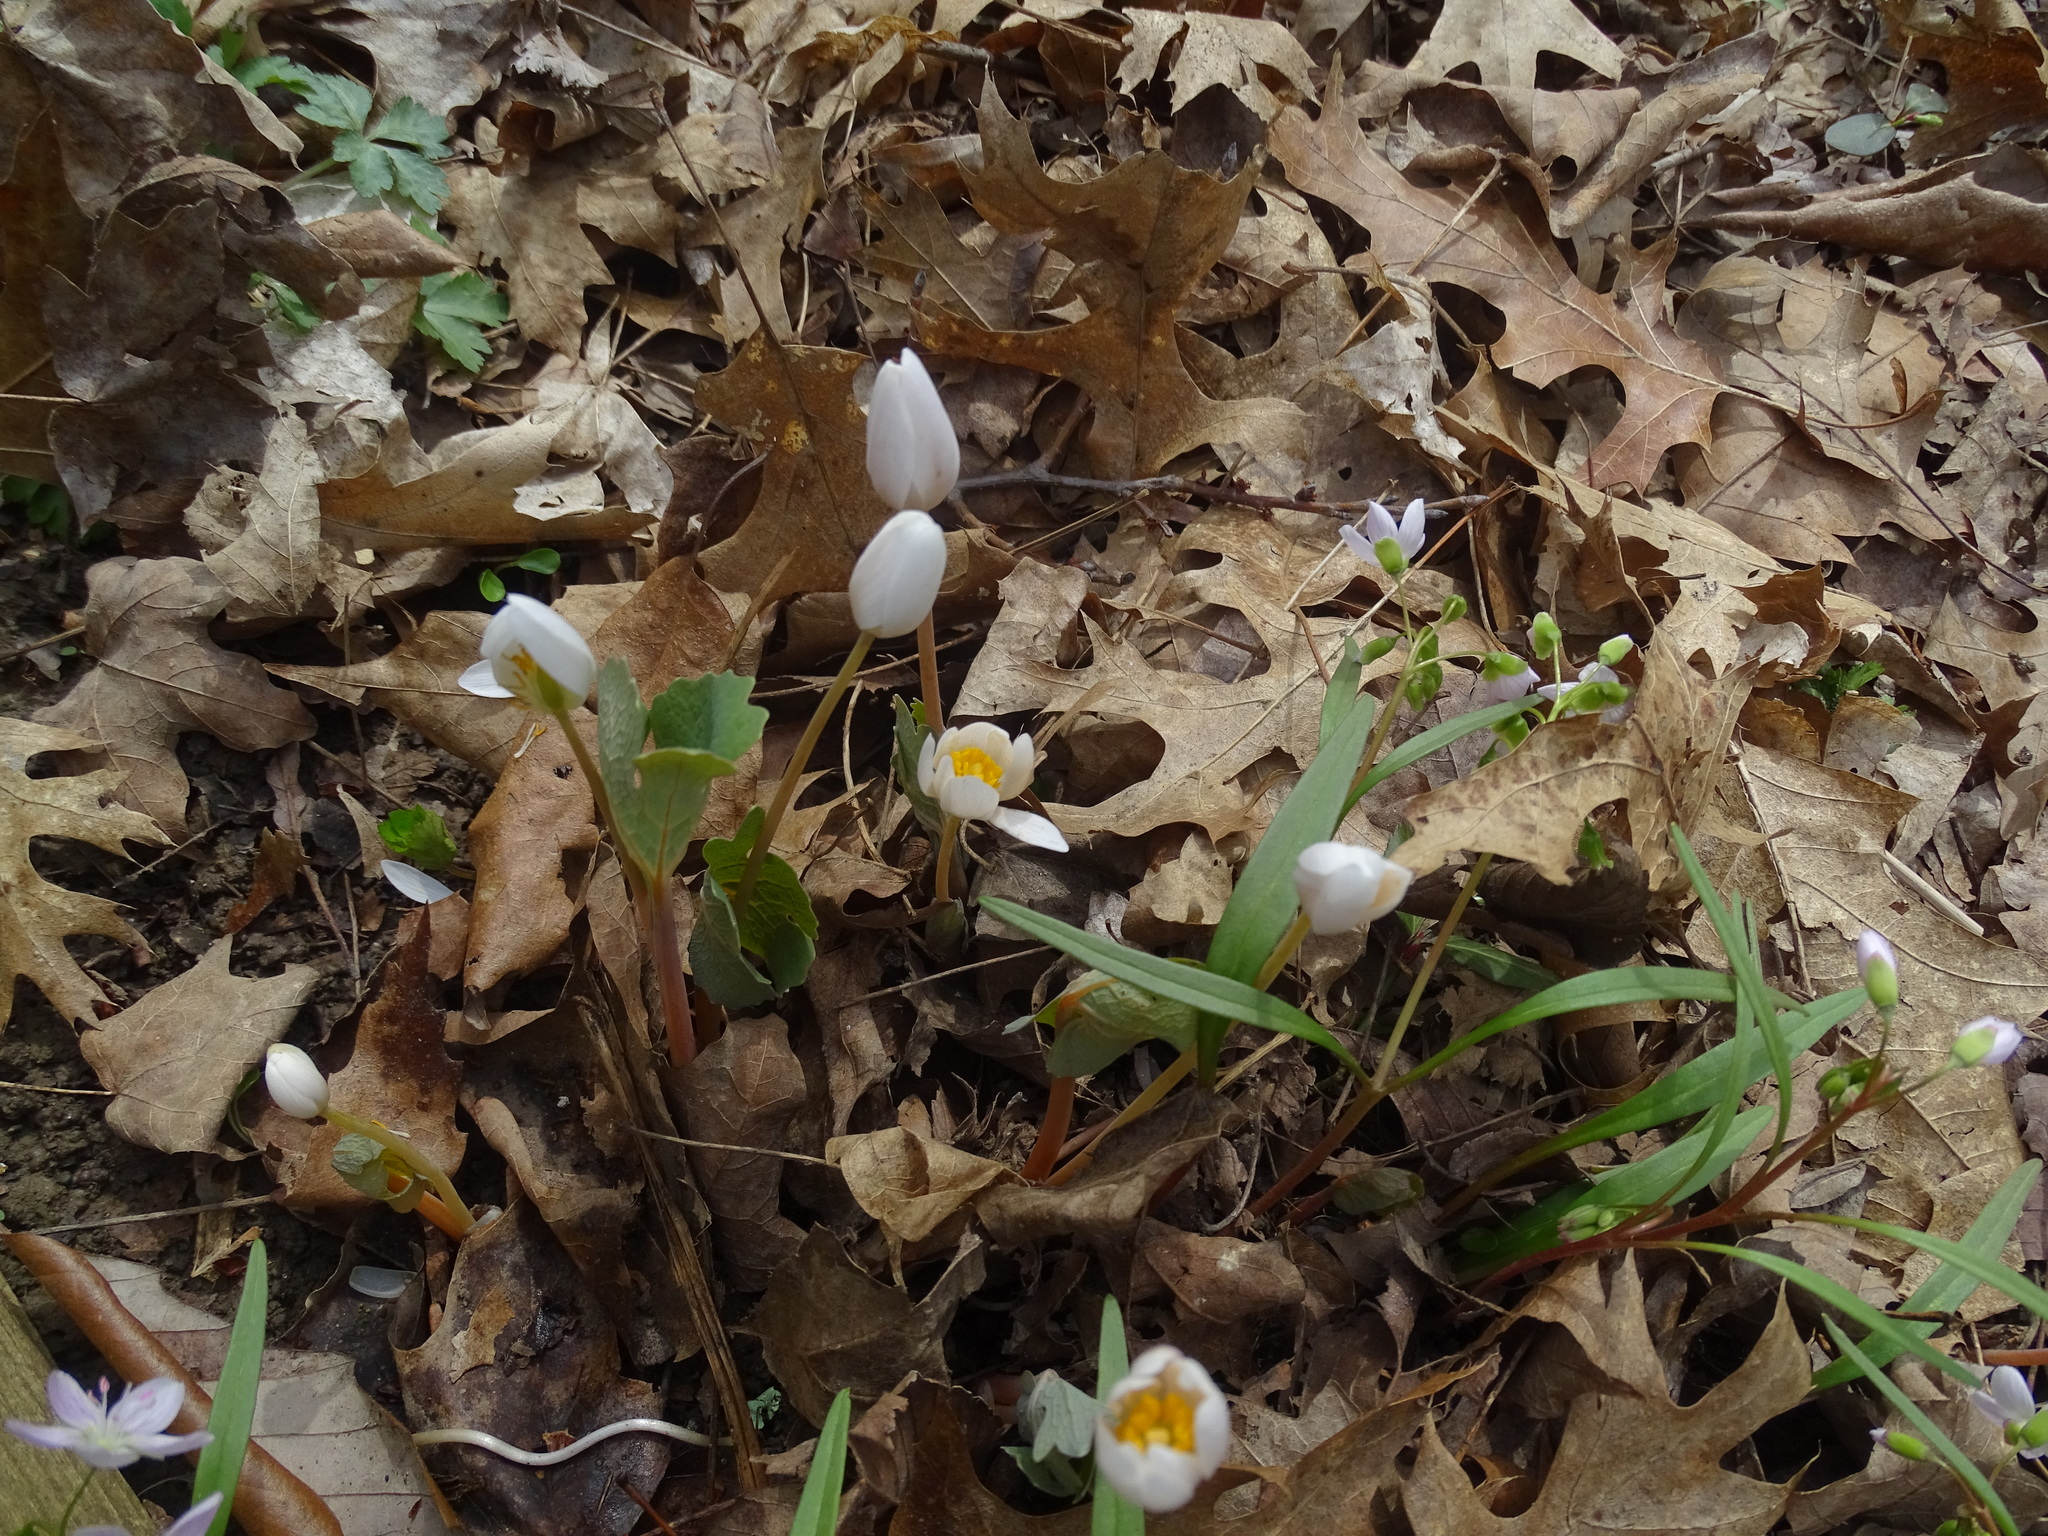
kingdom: Plantae
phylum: Tracheophyta
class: Magnoliopsida
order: Ranunculales
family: Papaveraceae
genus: Sanguinaria
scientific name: Sanguinaria canadensis
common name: Bloodroot
